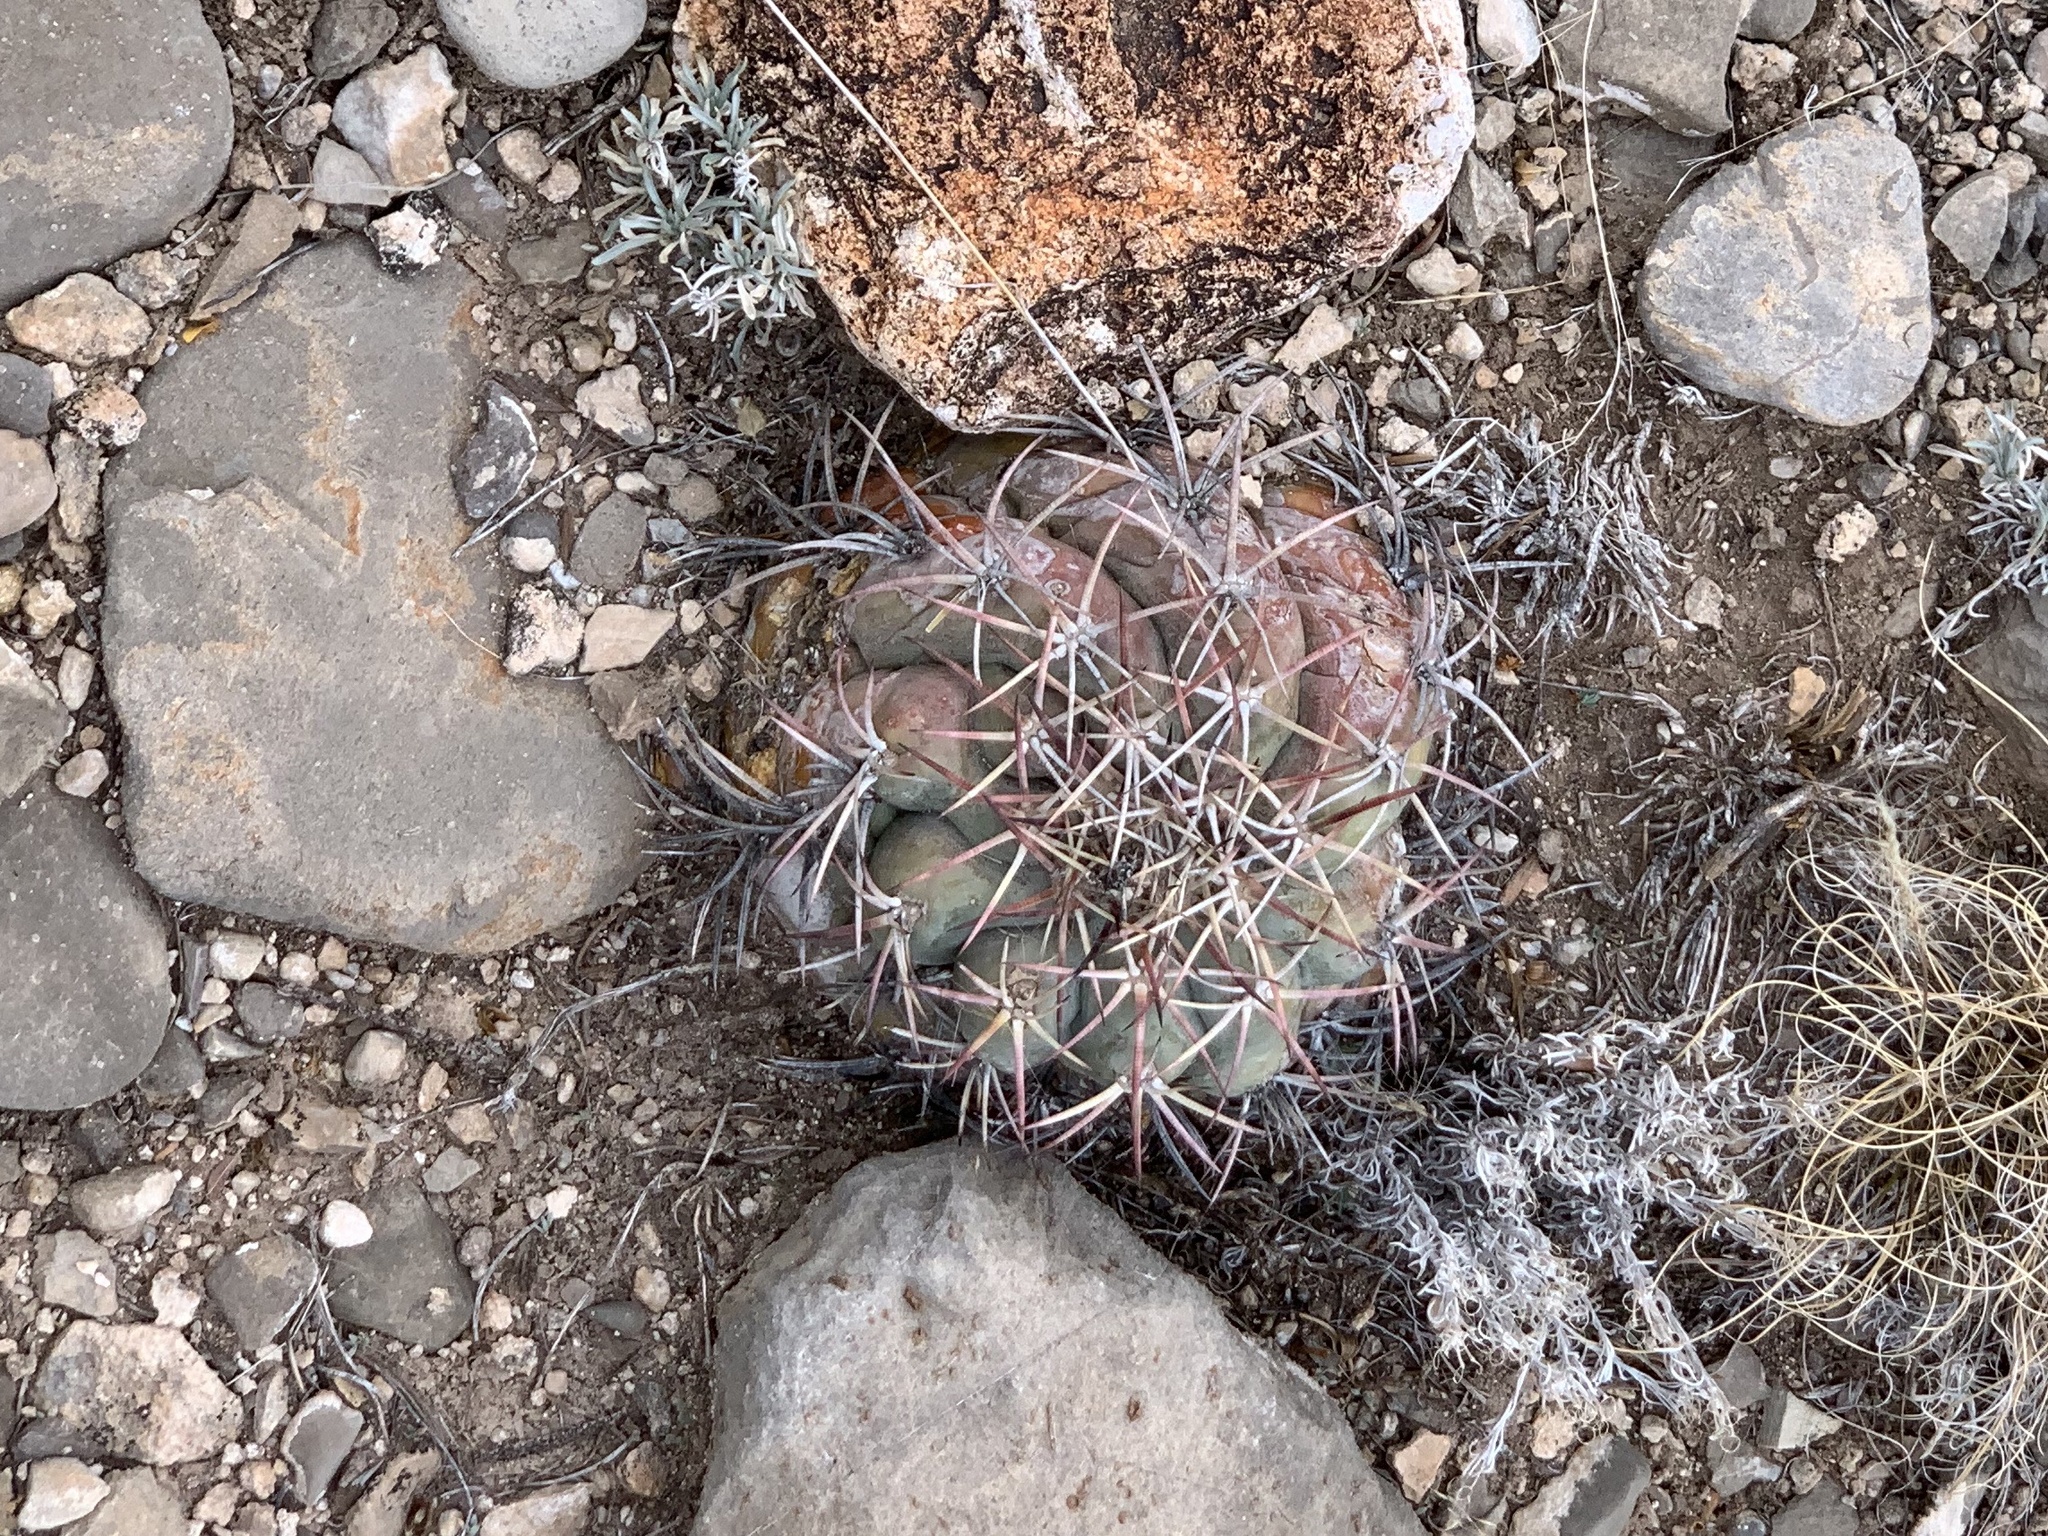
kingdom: Plantae
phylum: Tracheophyta
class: Magnoliopsida
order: Caryophyllales
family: Cactaceae
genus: Echinocactus
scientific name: Echinocactus horizonthalonius
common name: Devilshead
